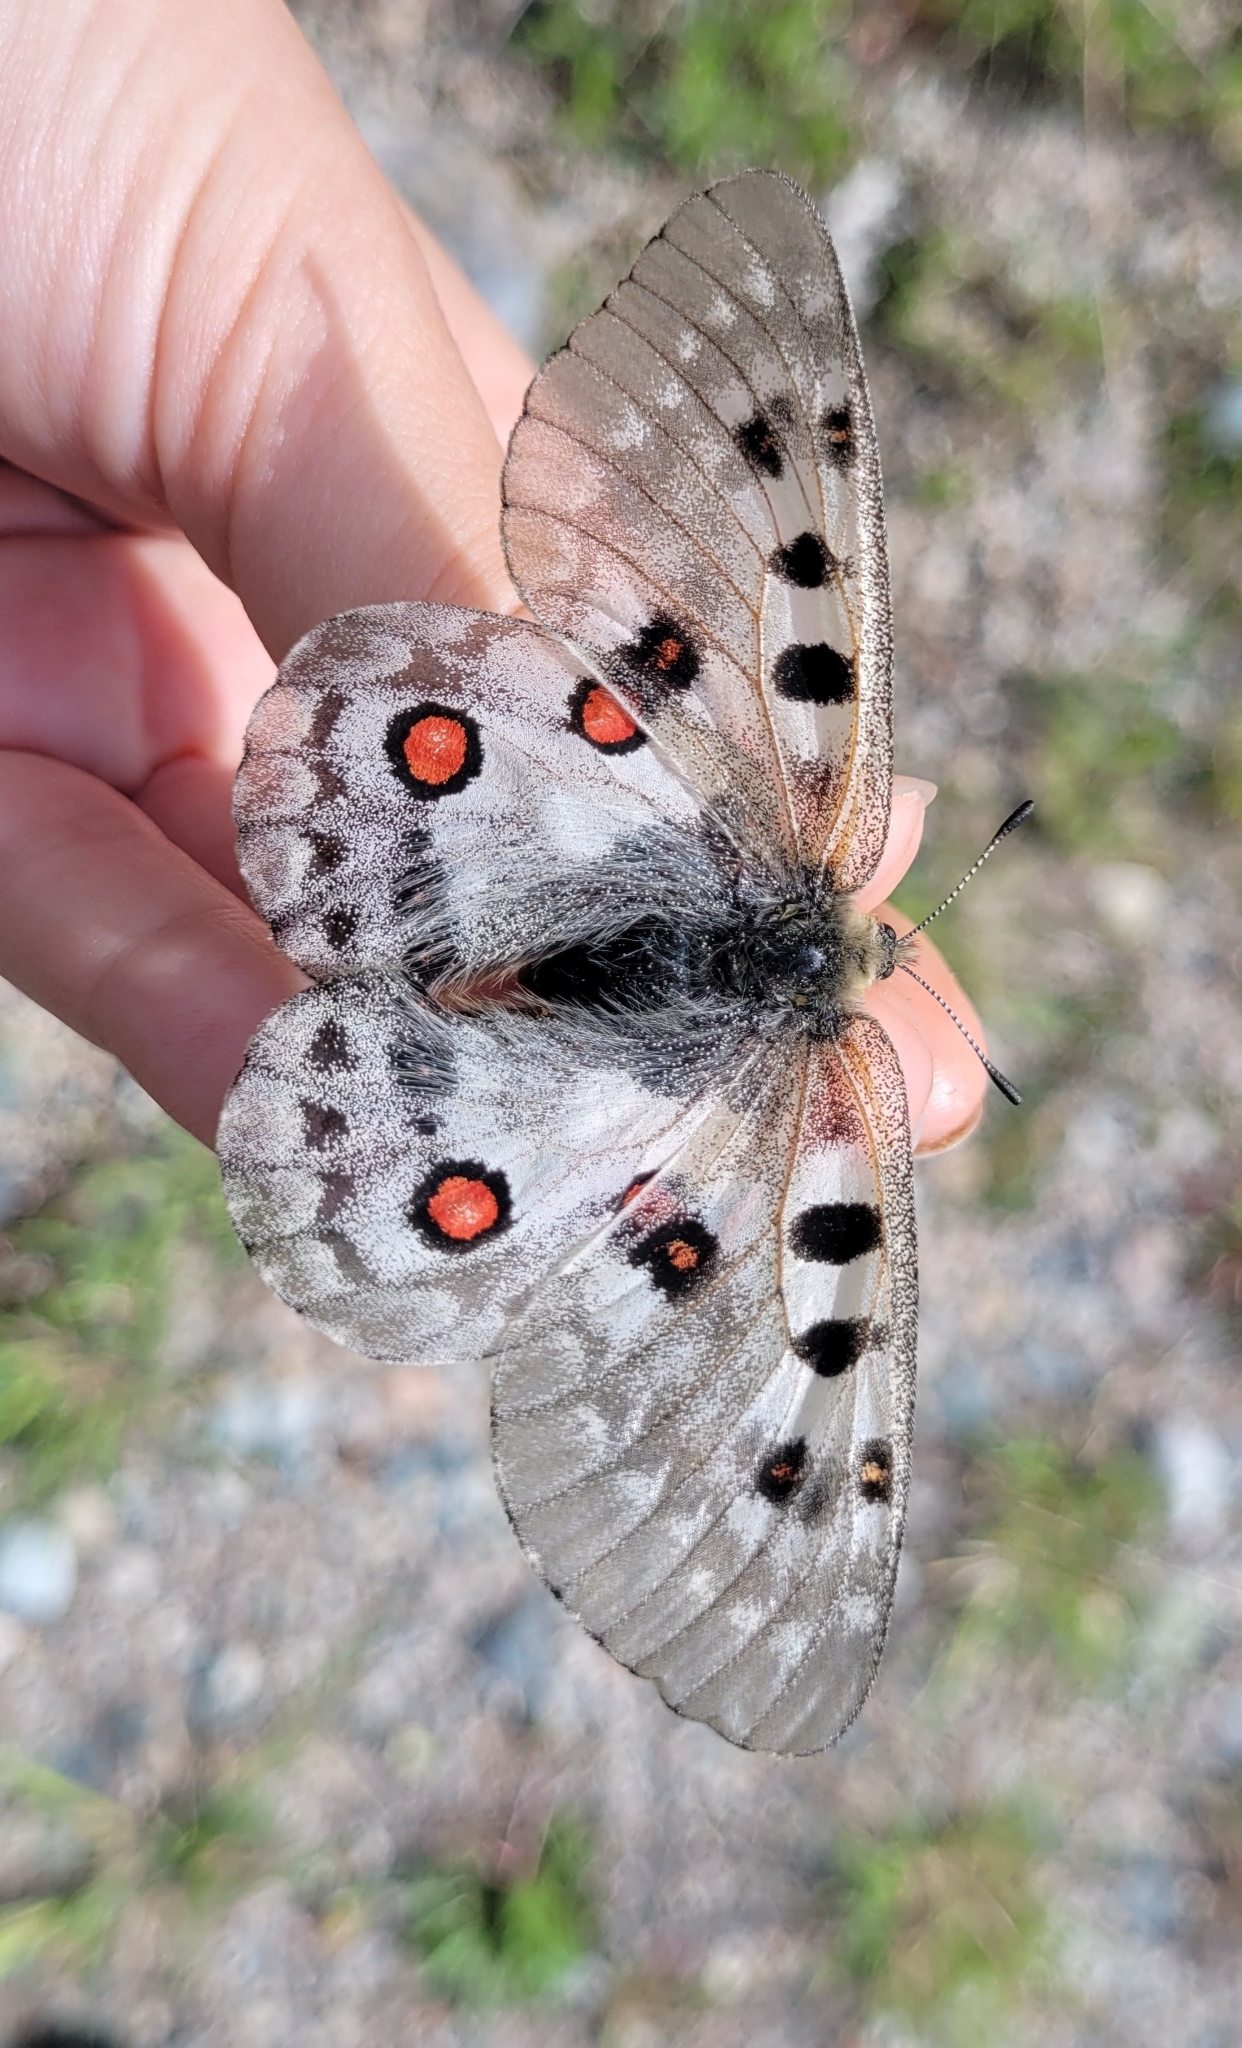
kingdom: Animalia
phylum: Arthropoda
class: Insecta
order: Lepidoptera
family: Papilionidae
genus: Parnassius
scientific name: Parnassius tianschanicus
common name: Large keeled apollo
